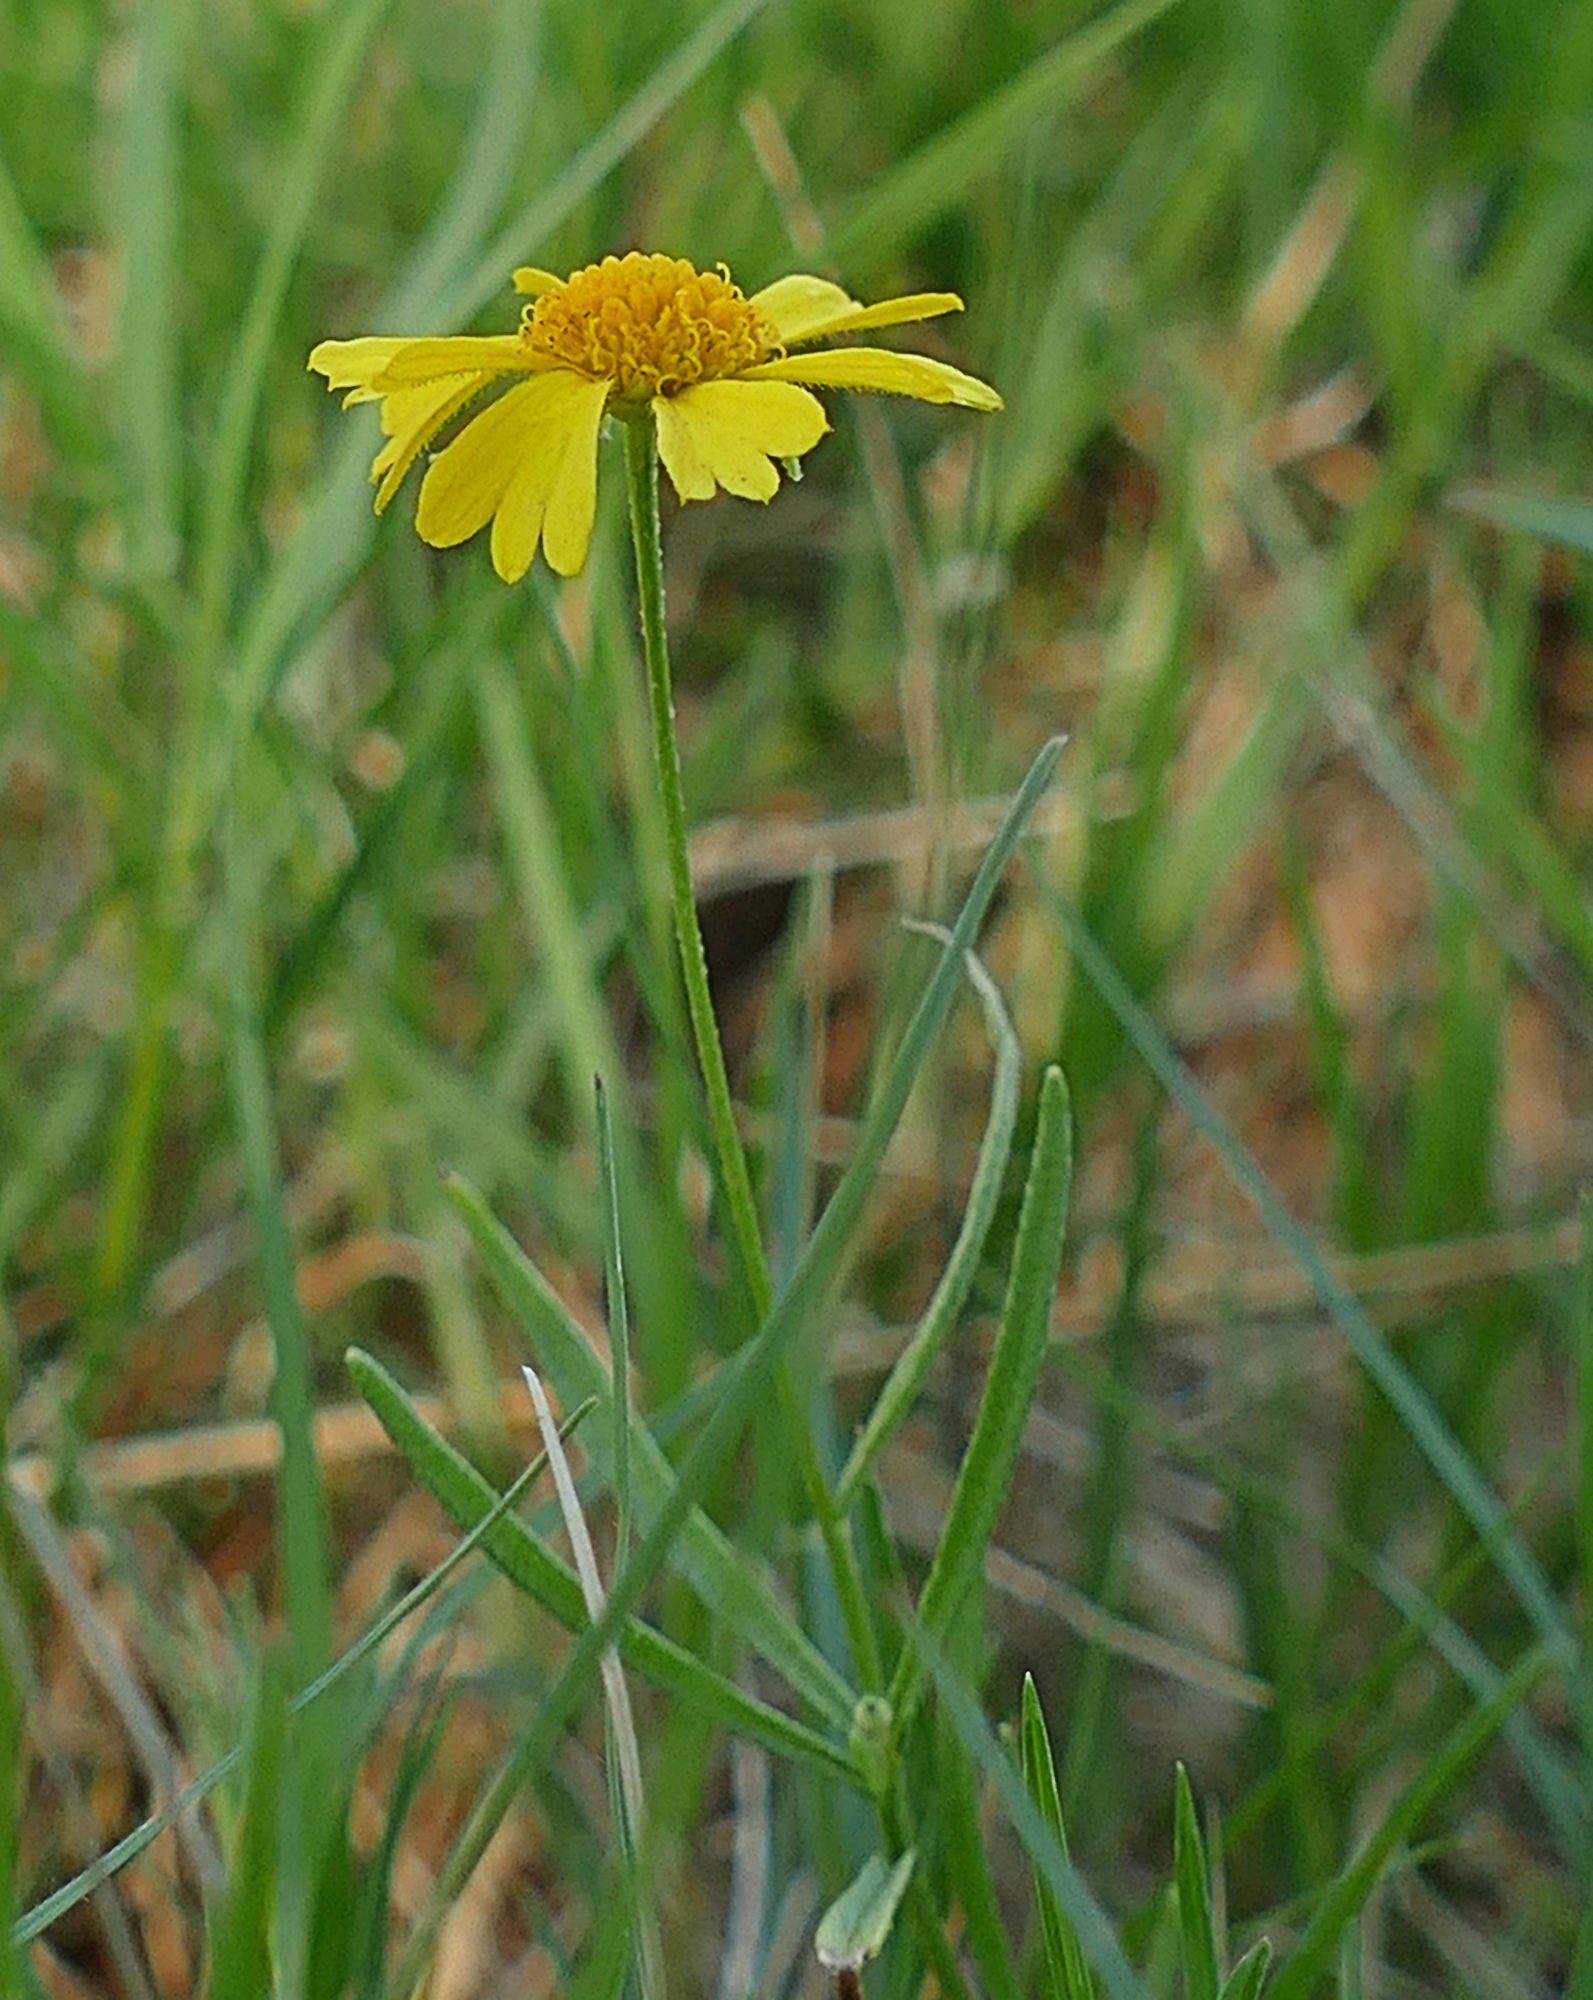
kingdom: Plantae
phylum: Tracheophyta
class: Magnoliopsida
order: Asterales
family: Asteraceae
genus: Helenium
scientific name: Helenium amarum
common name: Bitter sneezeweed
